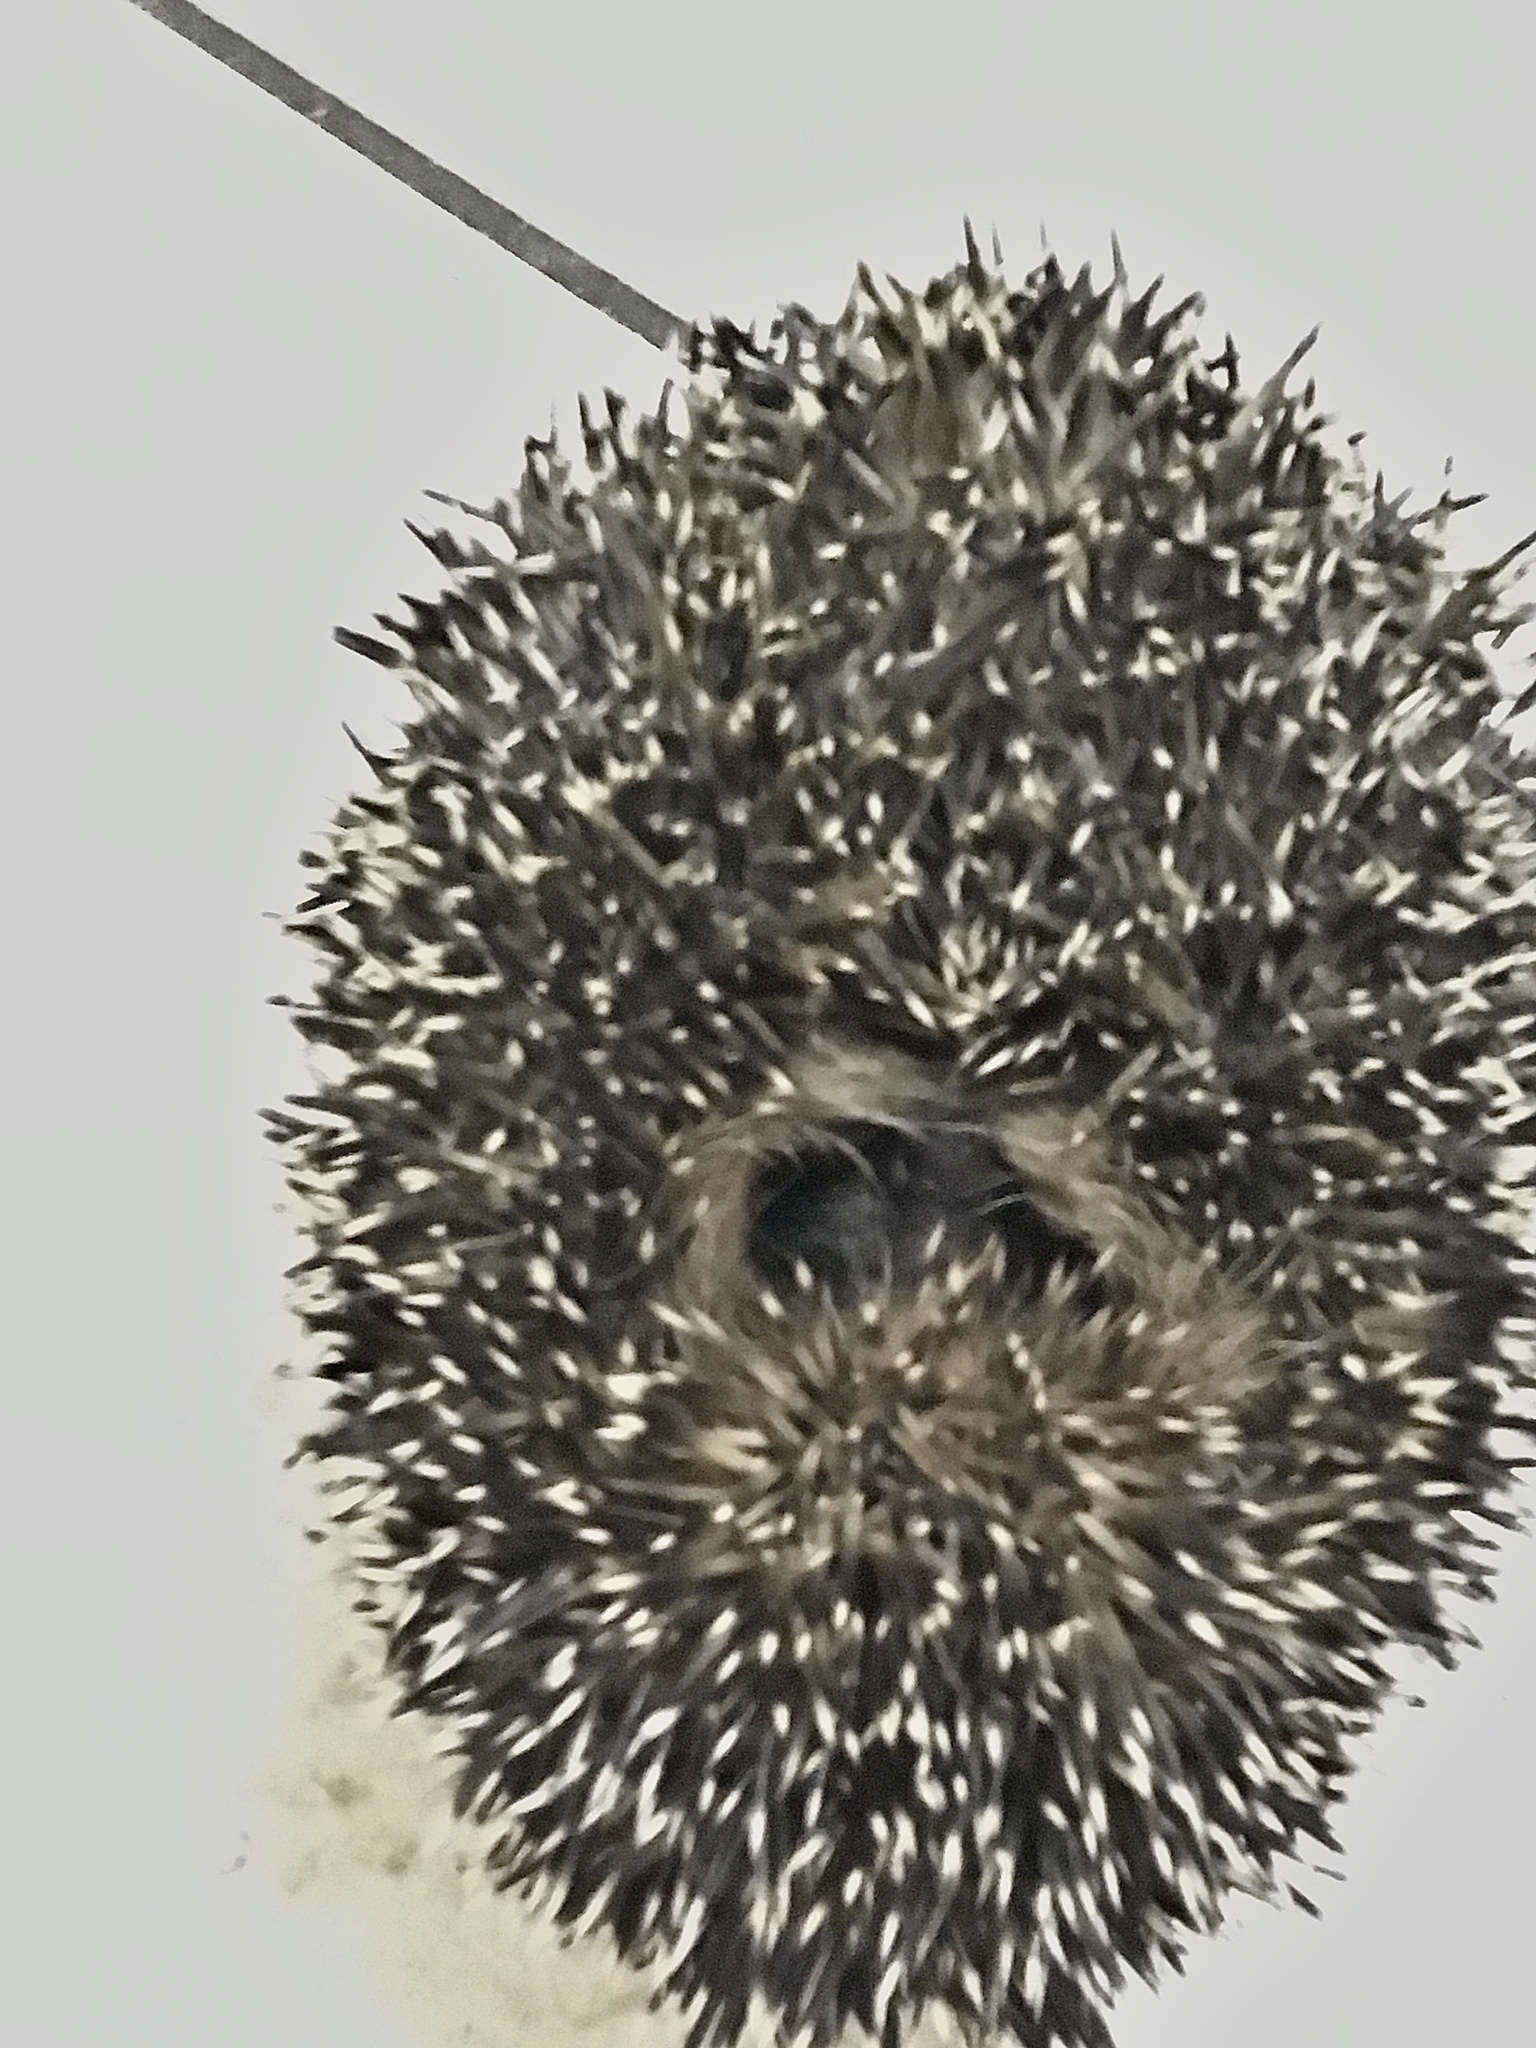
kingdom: Animalia
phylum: Chordata
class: Mammalia
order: Erinaceomorpha
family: Erinaceidae
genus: Erinaceus
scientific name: Erinaceus europaeus
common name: West european hedgehog
